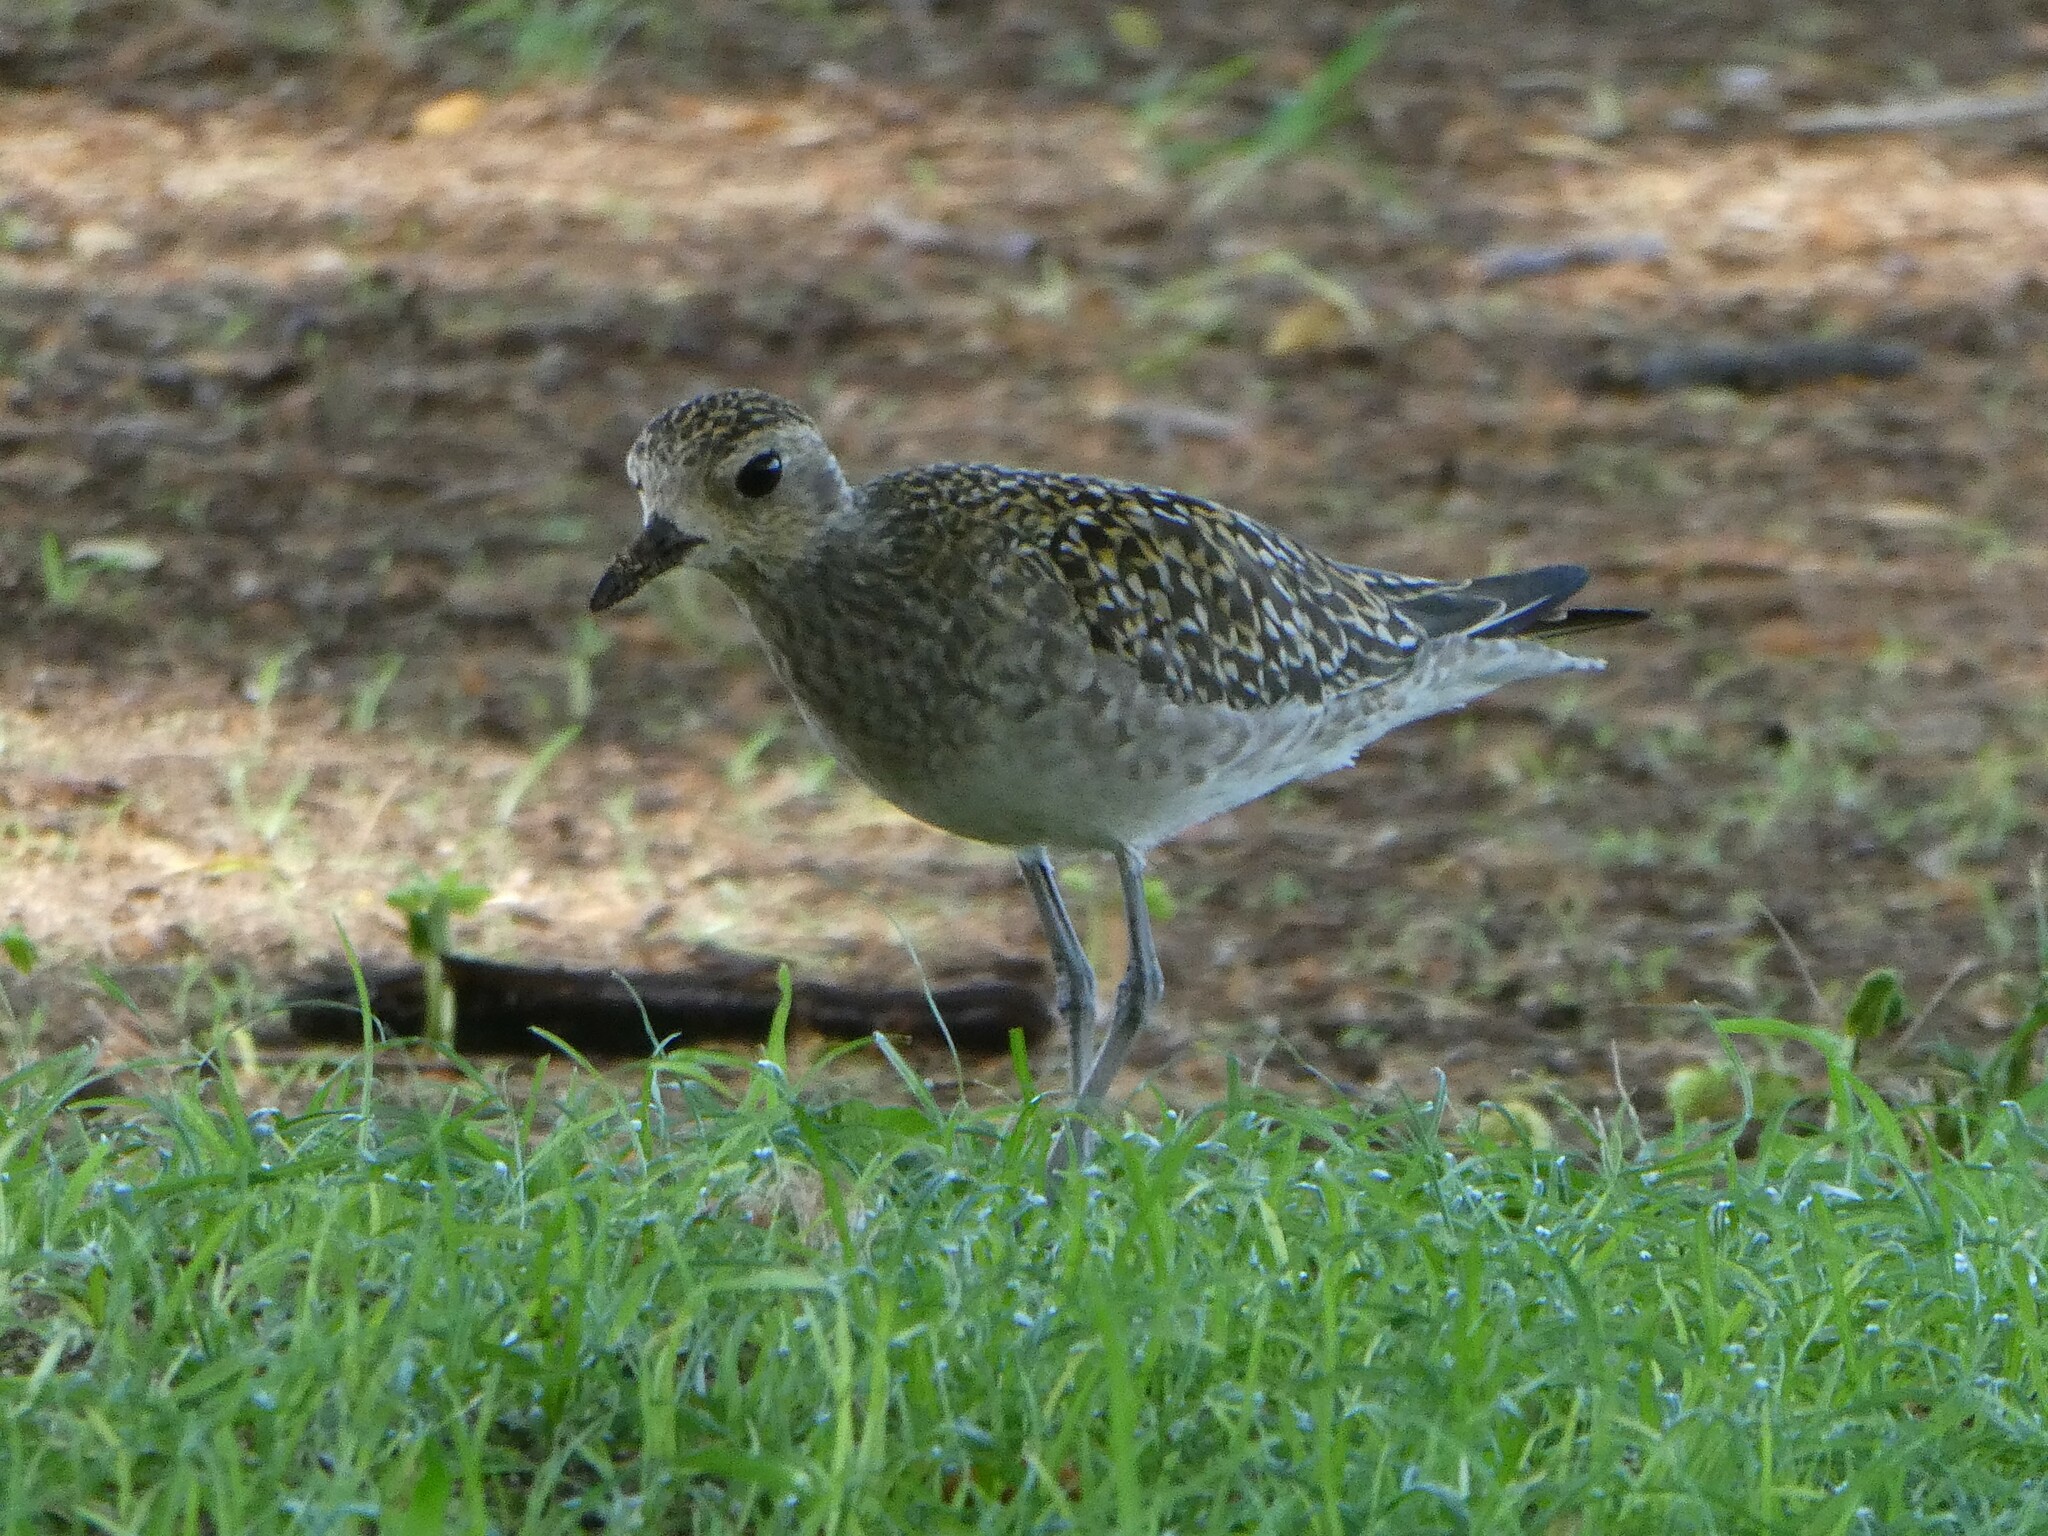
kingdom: Animalia
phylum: Chordata
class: Aves
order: Charadriiformes
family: Charadriidae
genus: Pluvialis
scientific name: Pluvialis fulva
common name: Pacific golden plover
